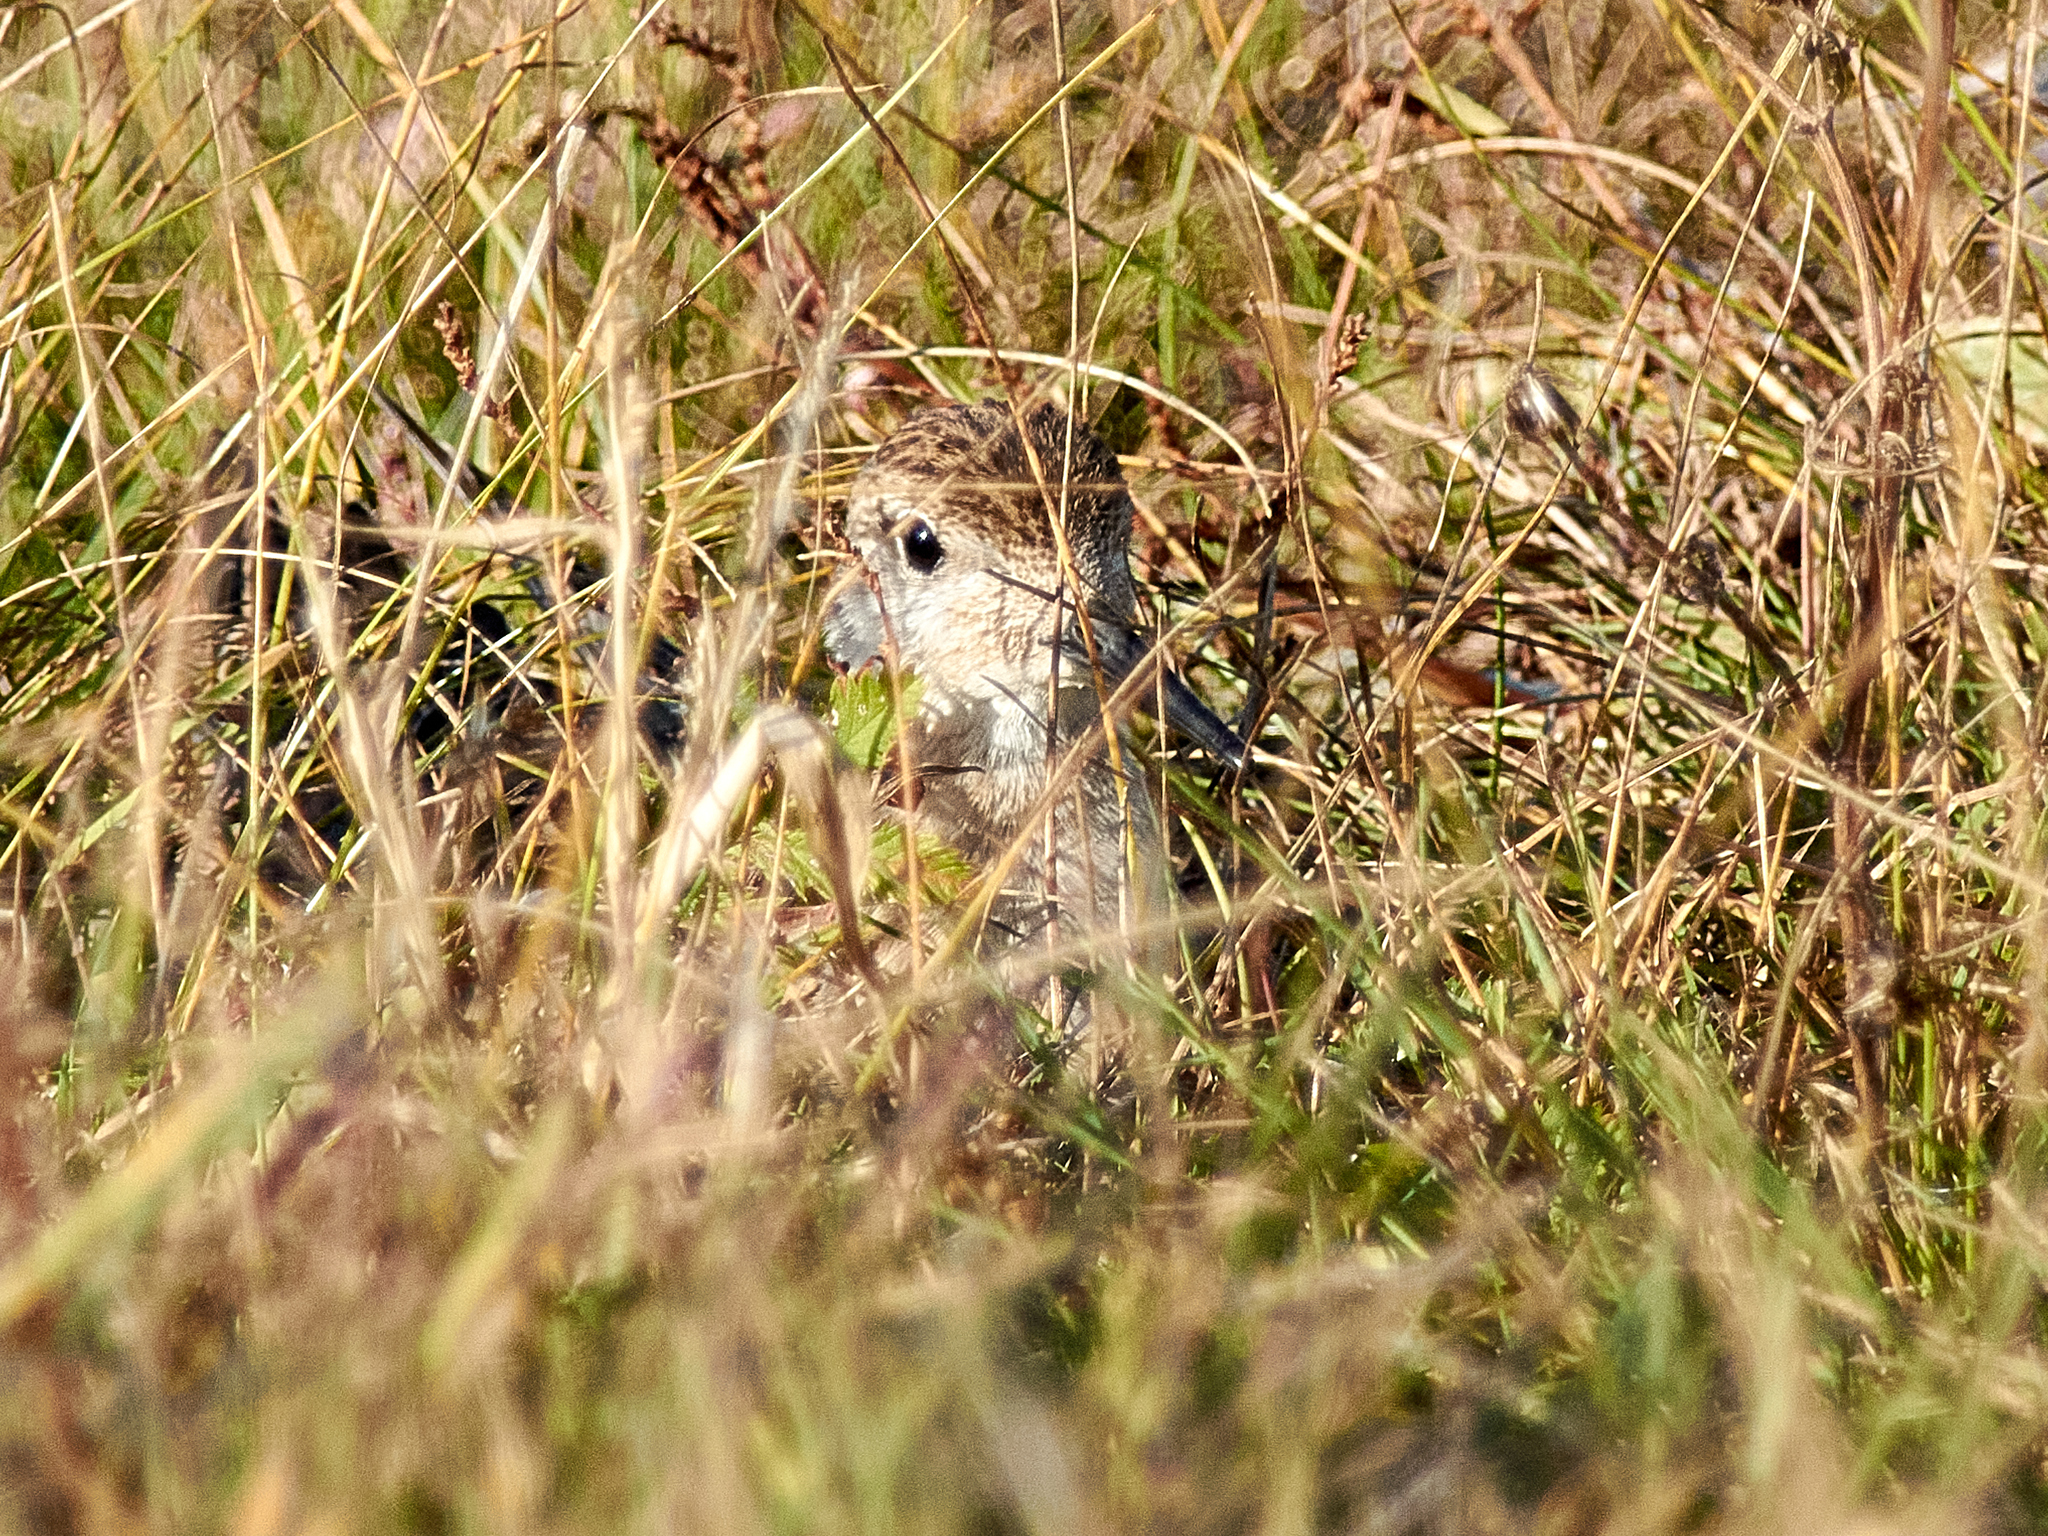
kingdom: Animalia
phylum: Chordata
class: Aves
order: Charadriiformes
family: Scolopacidae
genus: Calidris
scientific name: Calidris pugnax
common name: Ruff
